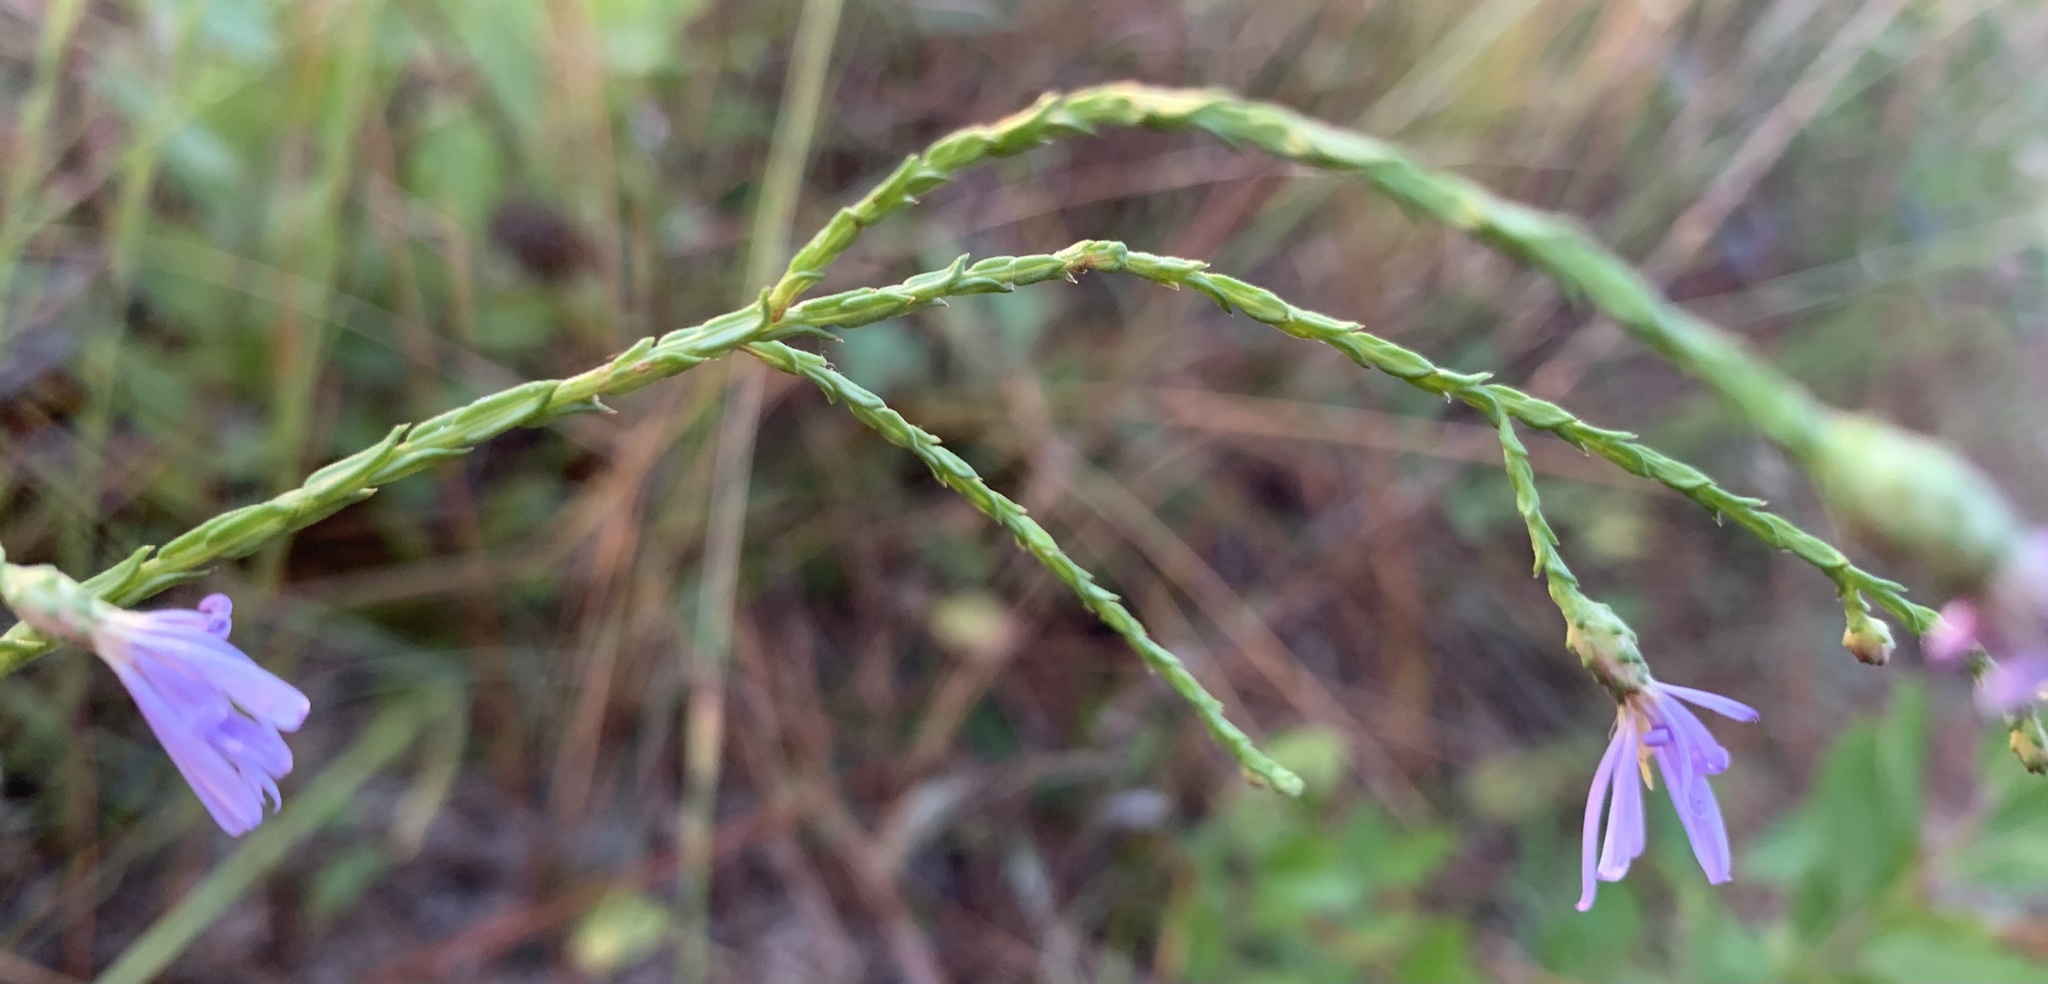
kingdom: Plantae
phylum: Tracheophyta
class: Magnoliopsida
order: Asterales
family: Asteraceae
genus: Symphyotrichum
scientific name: Symphyotrichum adnatum
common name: Scale-leaf aster
